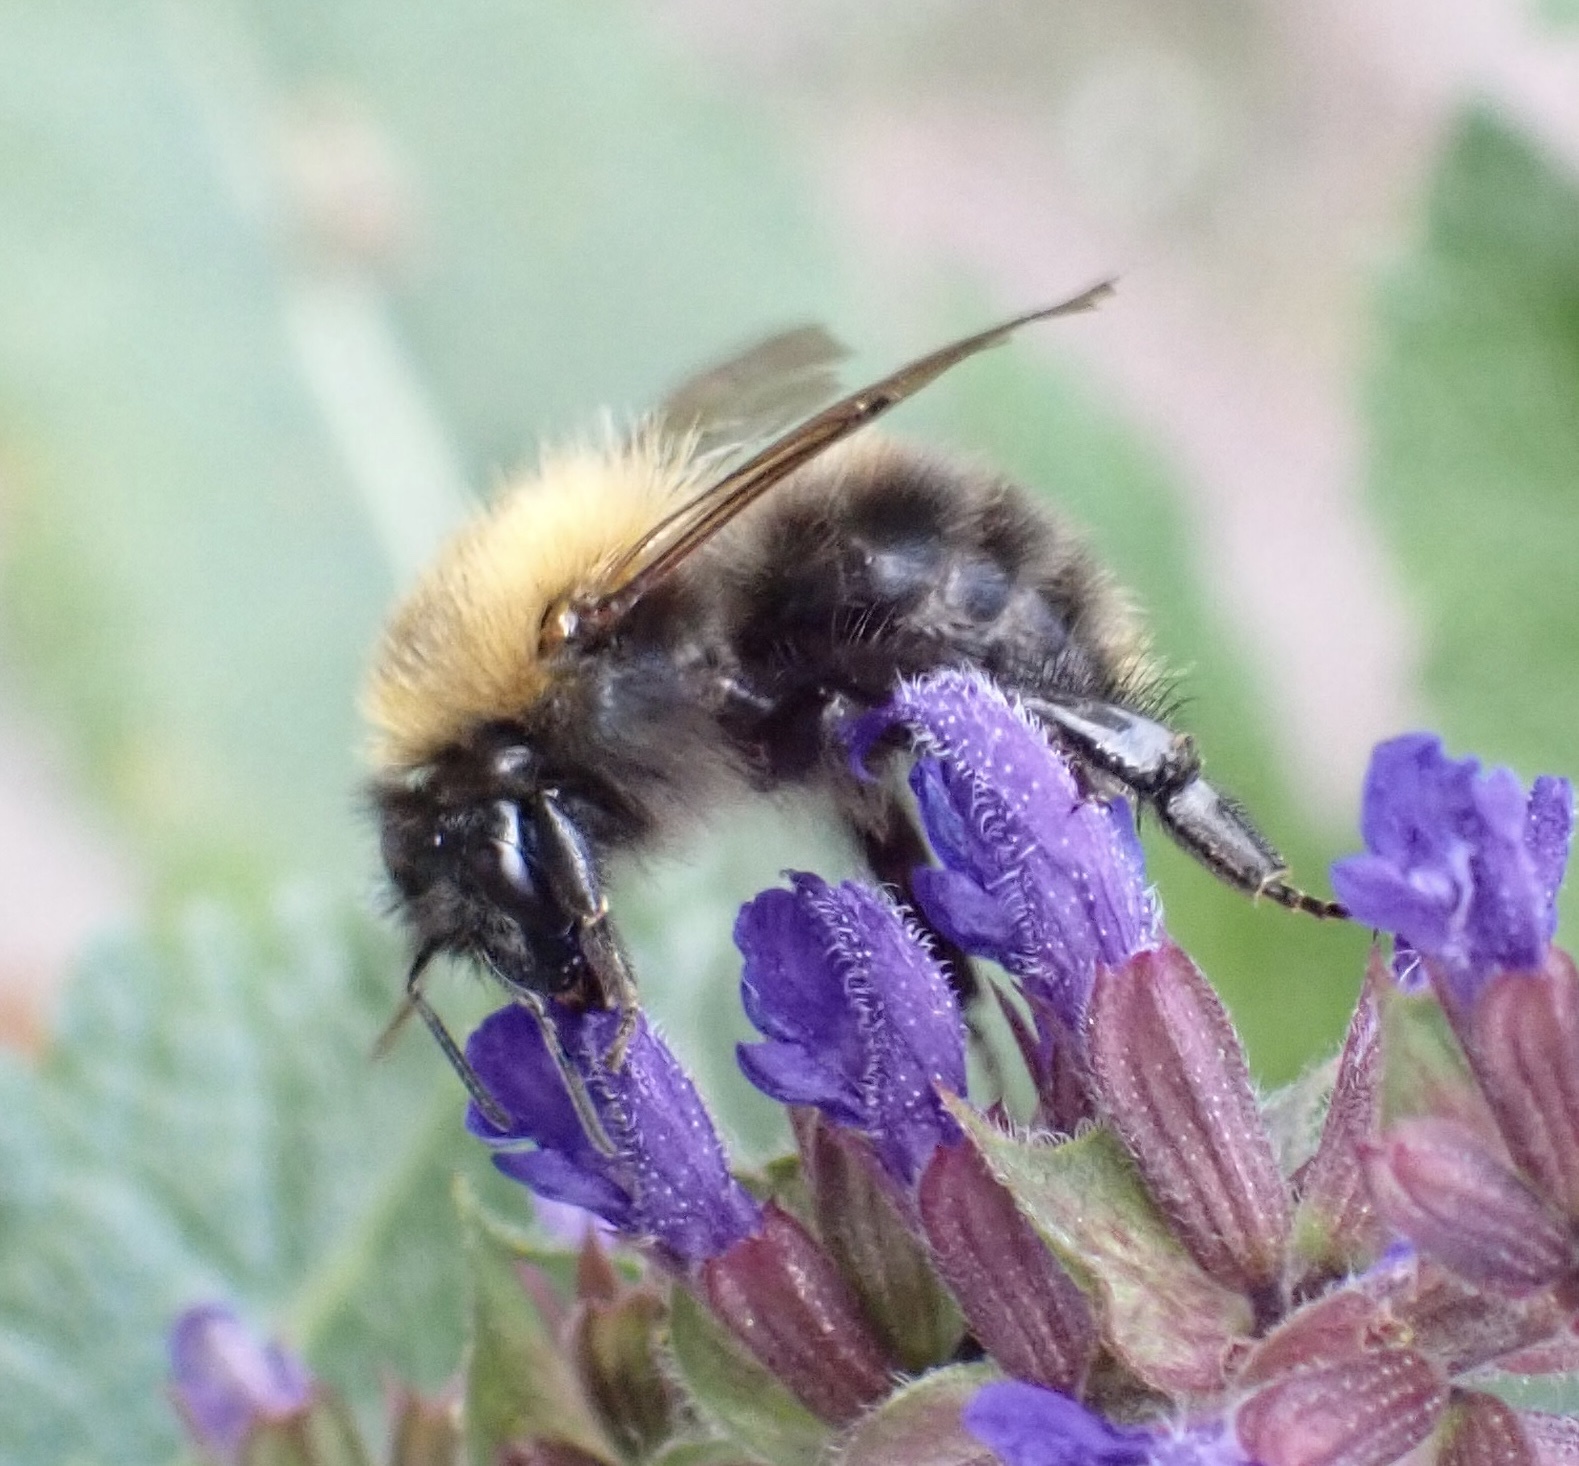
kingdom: Animalia
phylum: Arthropoda
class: Insecta
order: Hymenoptera
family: Apidae
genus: Bombus
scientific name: Bombus pascuorum
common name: Common carder bee
